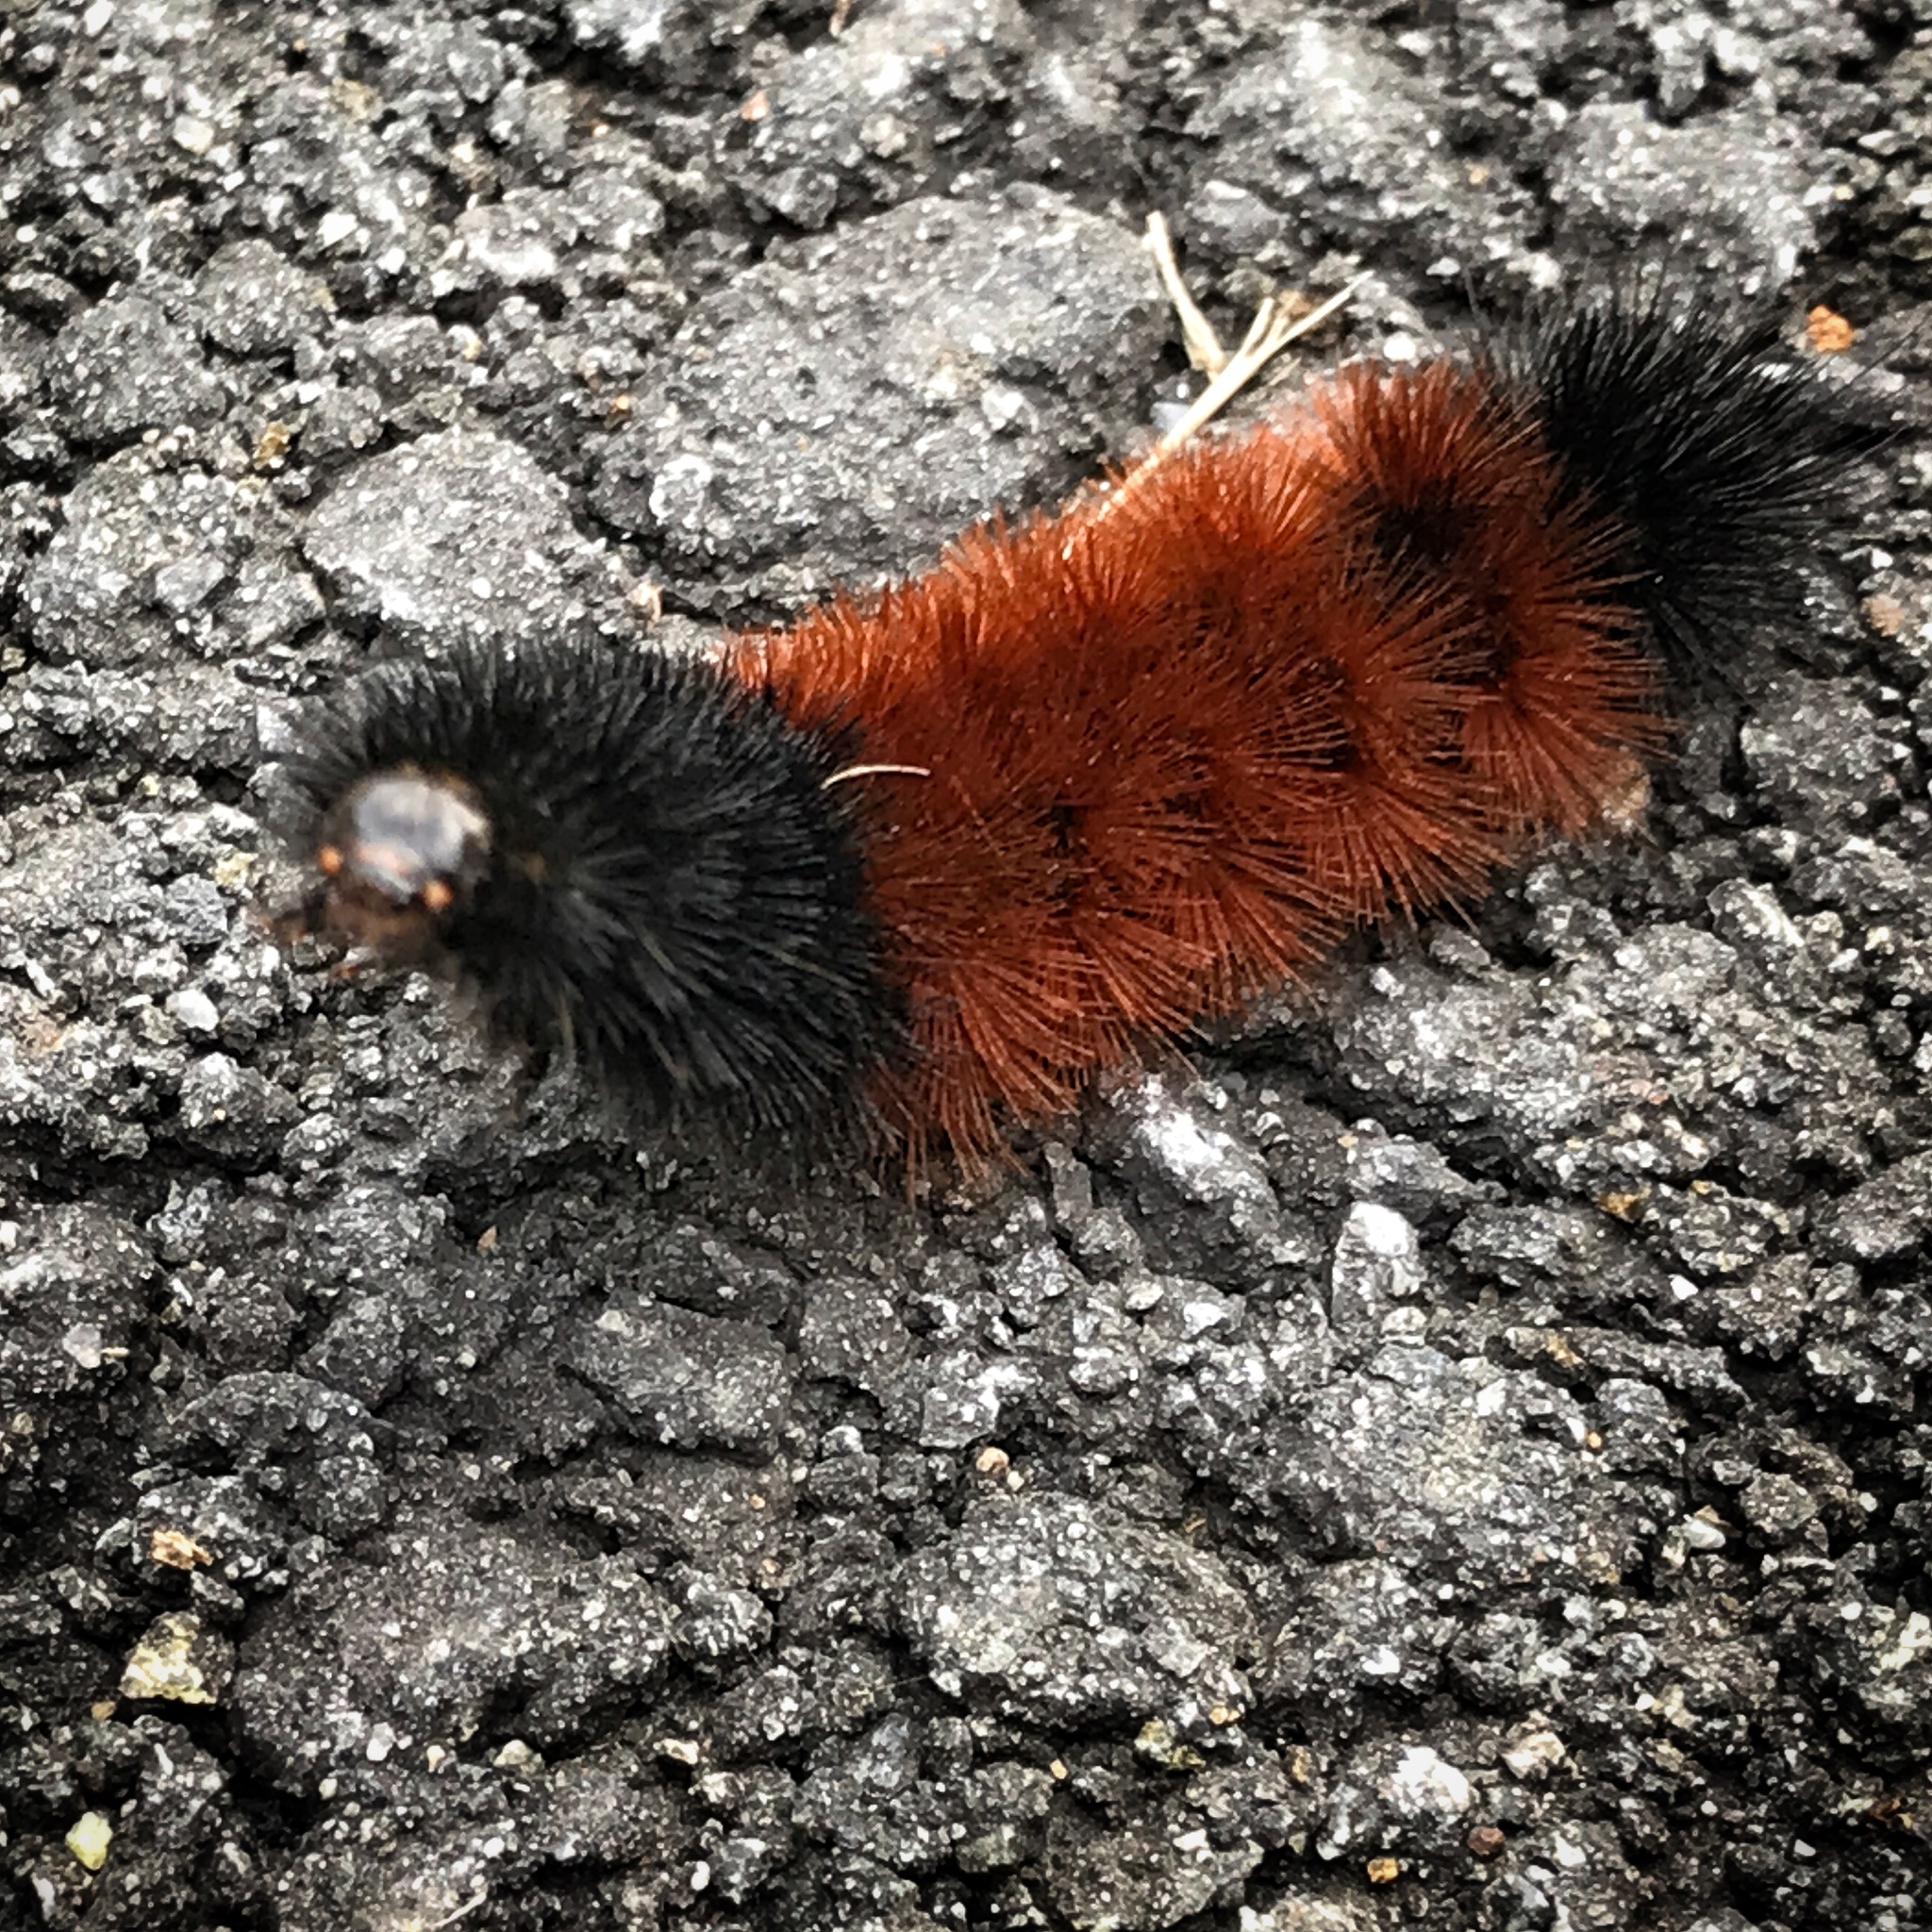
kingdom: Animalia
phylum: Arthropoda
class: Insecta
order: Lepidoptera
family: Erebidae
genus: Pyrrharctia
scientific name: Pyrrharctia isabella
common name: Isabella tiger moth
